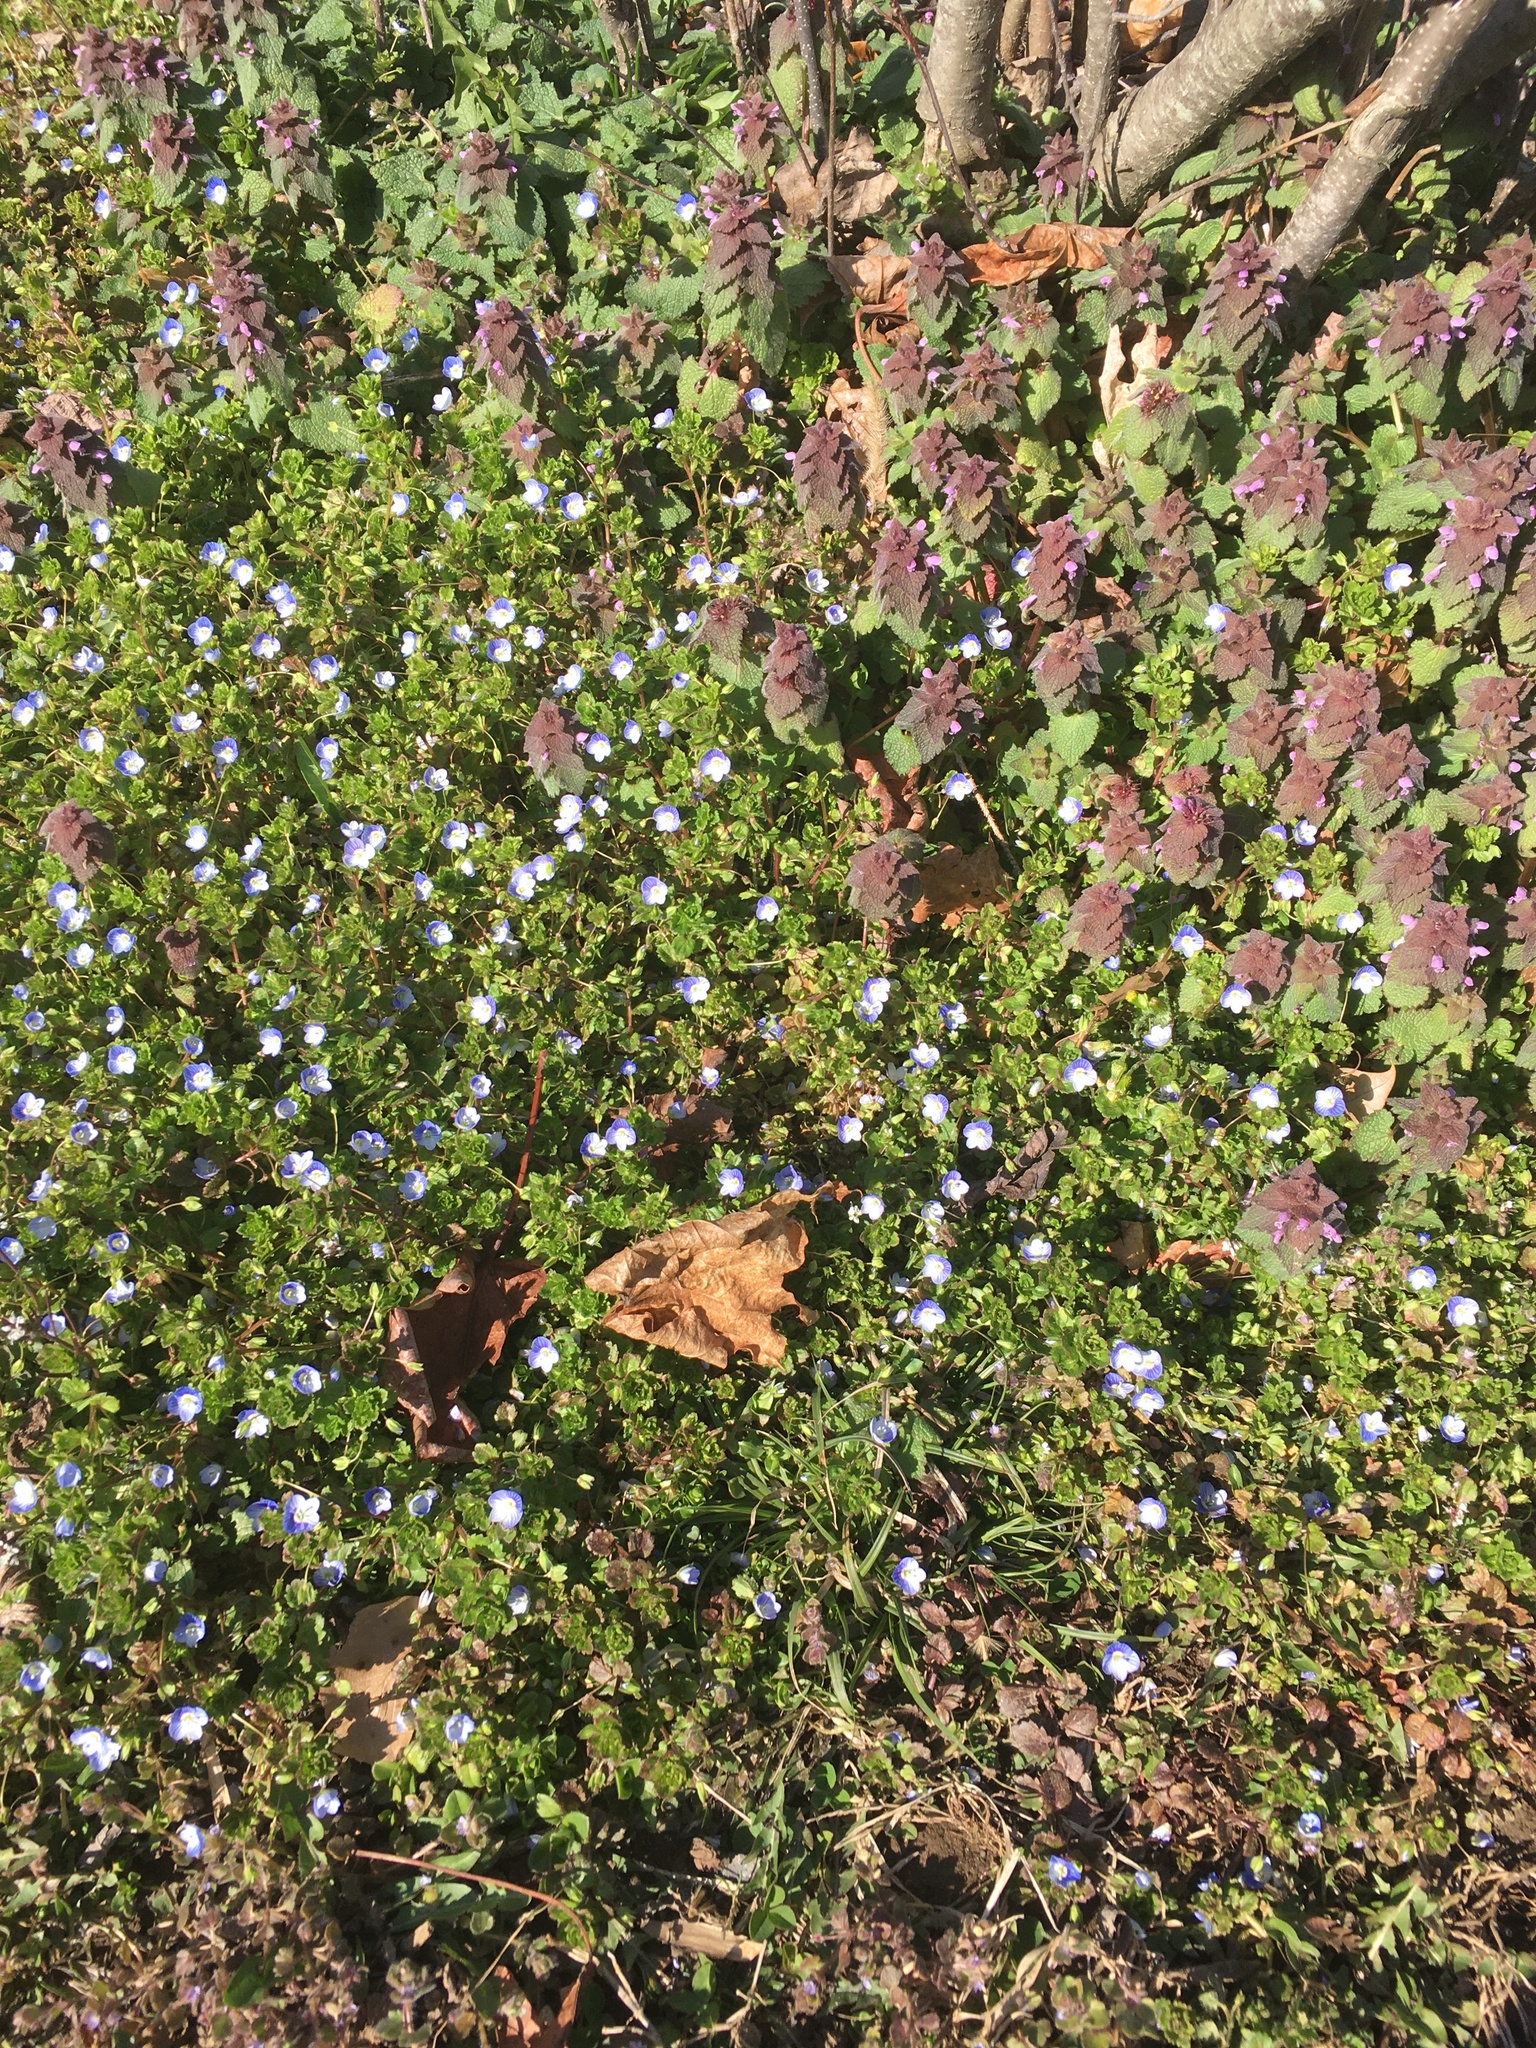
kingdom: Plantae
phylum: Tracheophyta
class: Magnoliopsida
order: Lamiales
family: Plantaginaceae
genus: Veronica
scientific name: Veronica persica
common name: Common field-speedwell
